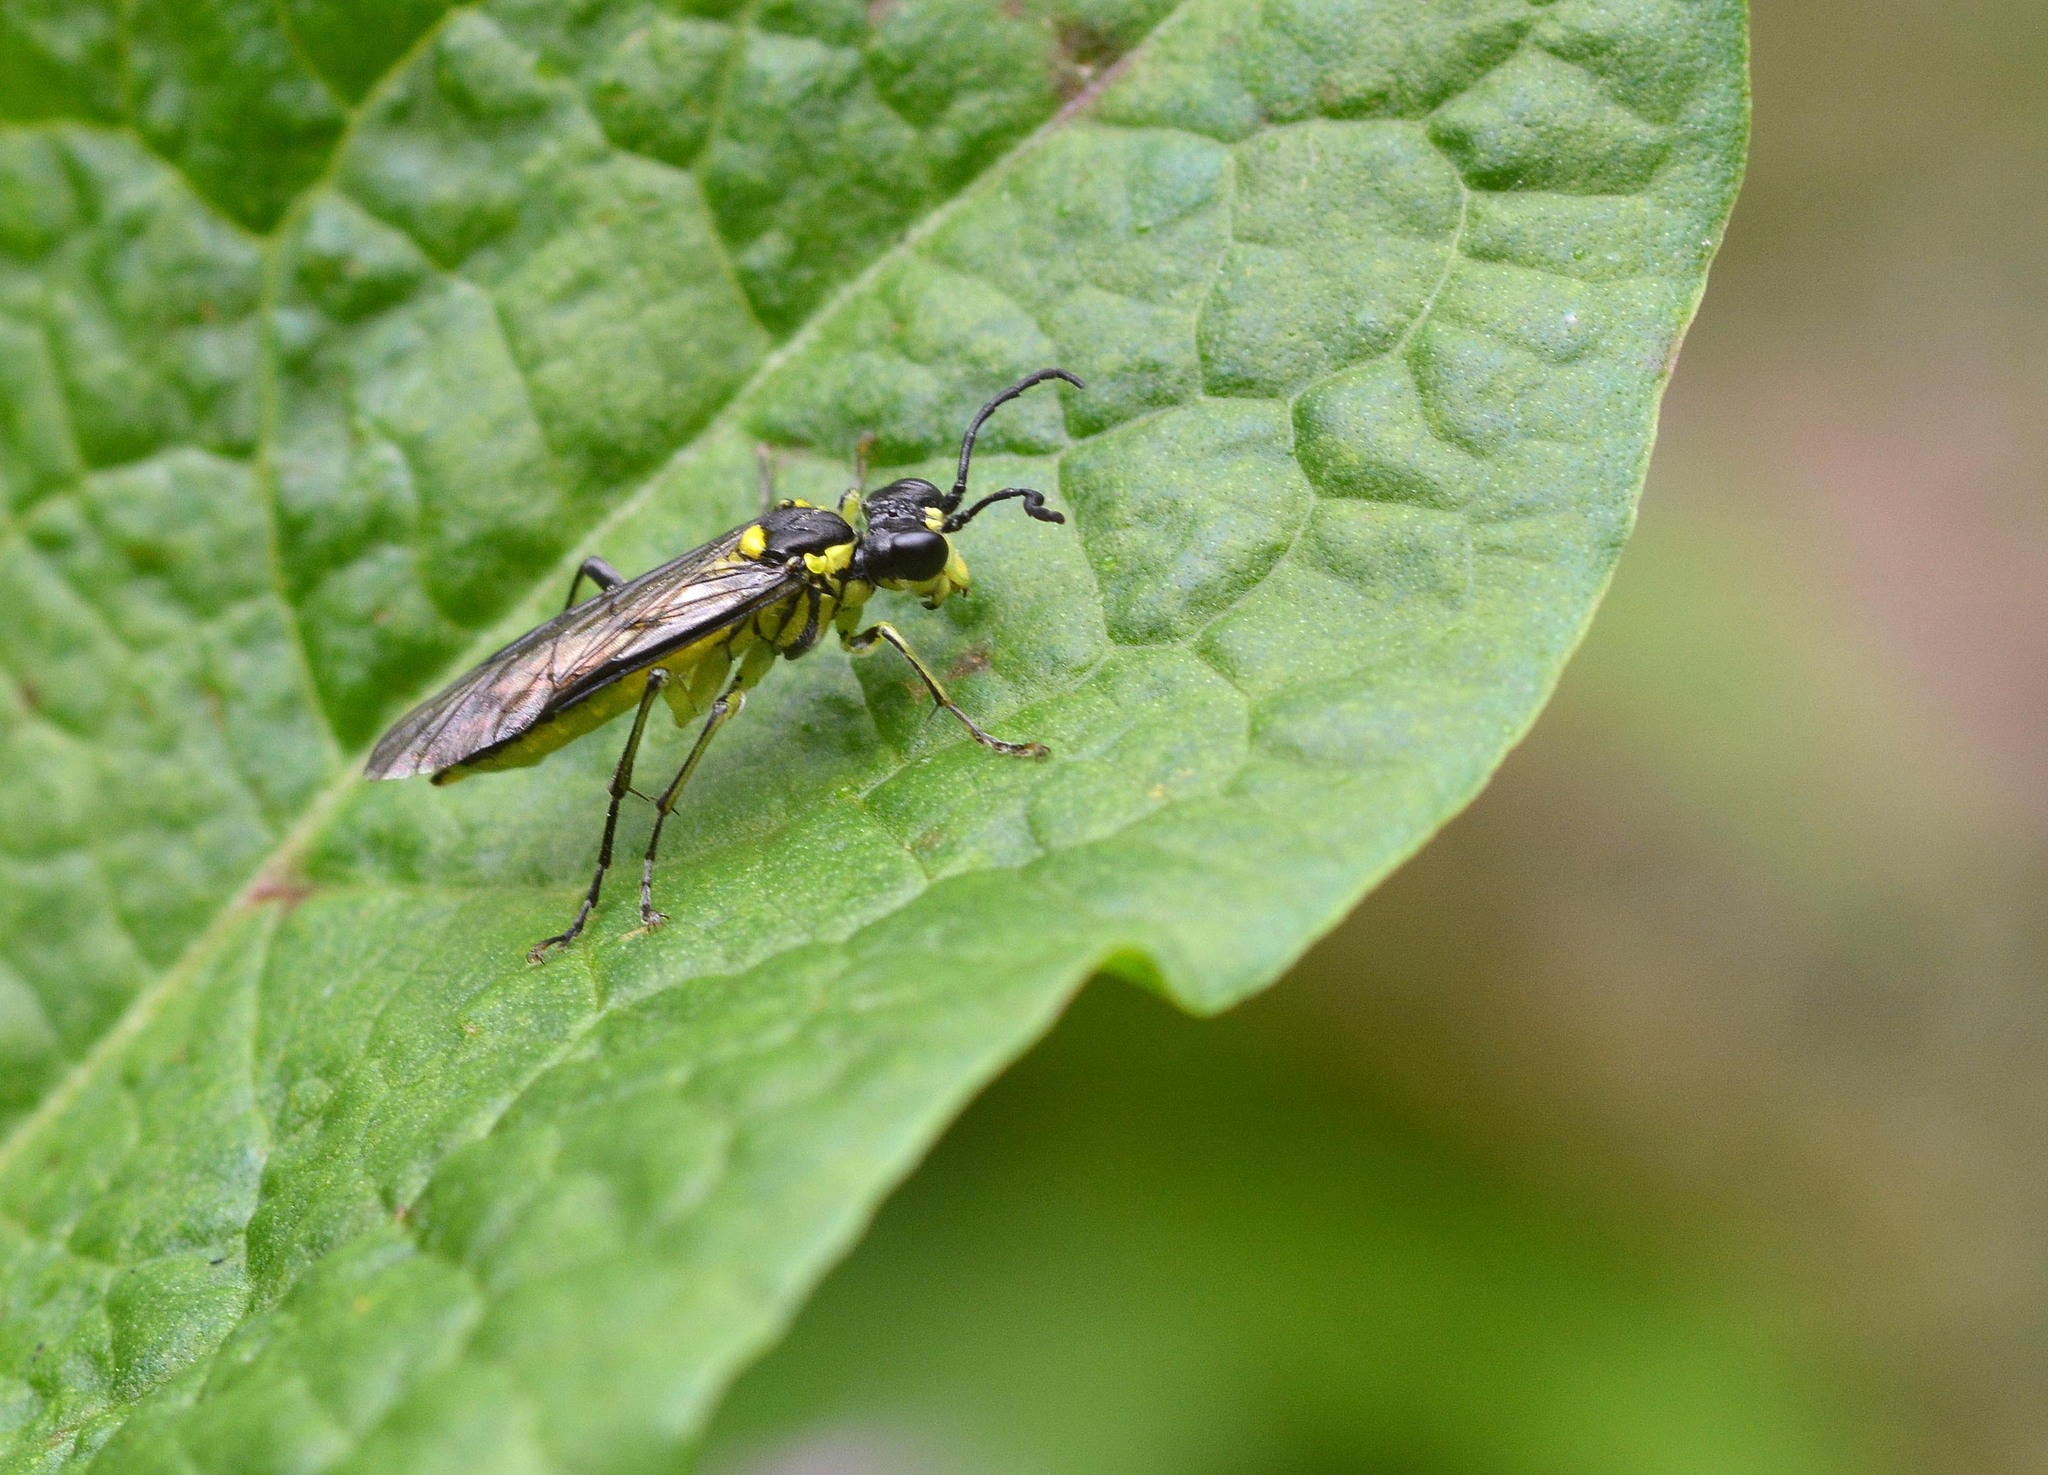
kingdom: Animalia
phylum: Arthropoda
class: Insecta
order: Hymenoptera
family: Tenthredinidae
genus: Tenthredo
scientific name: Tenthredo mesomela
